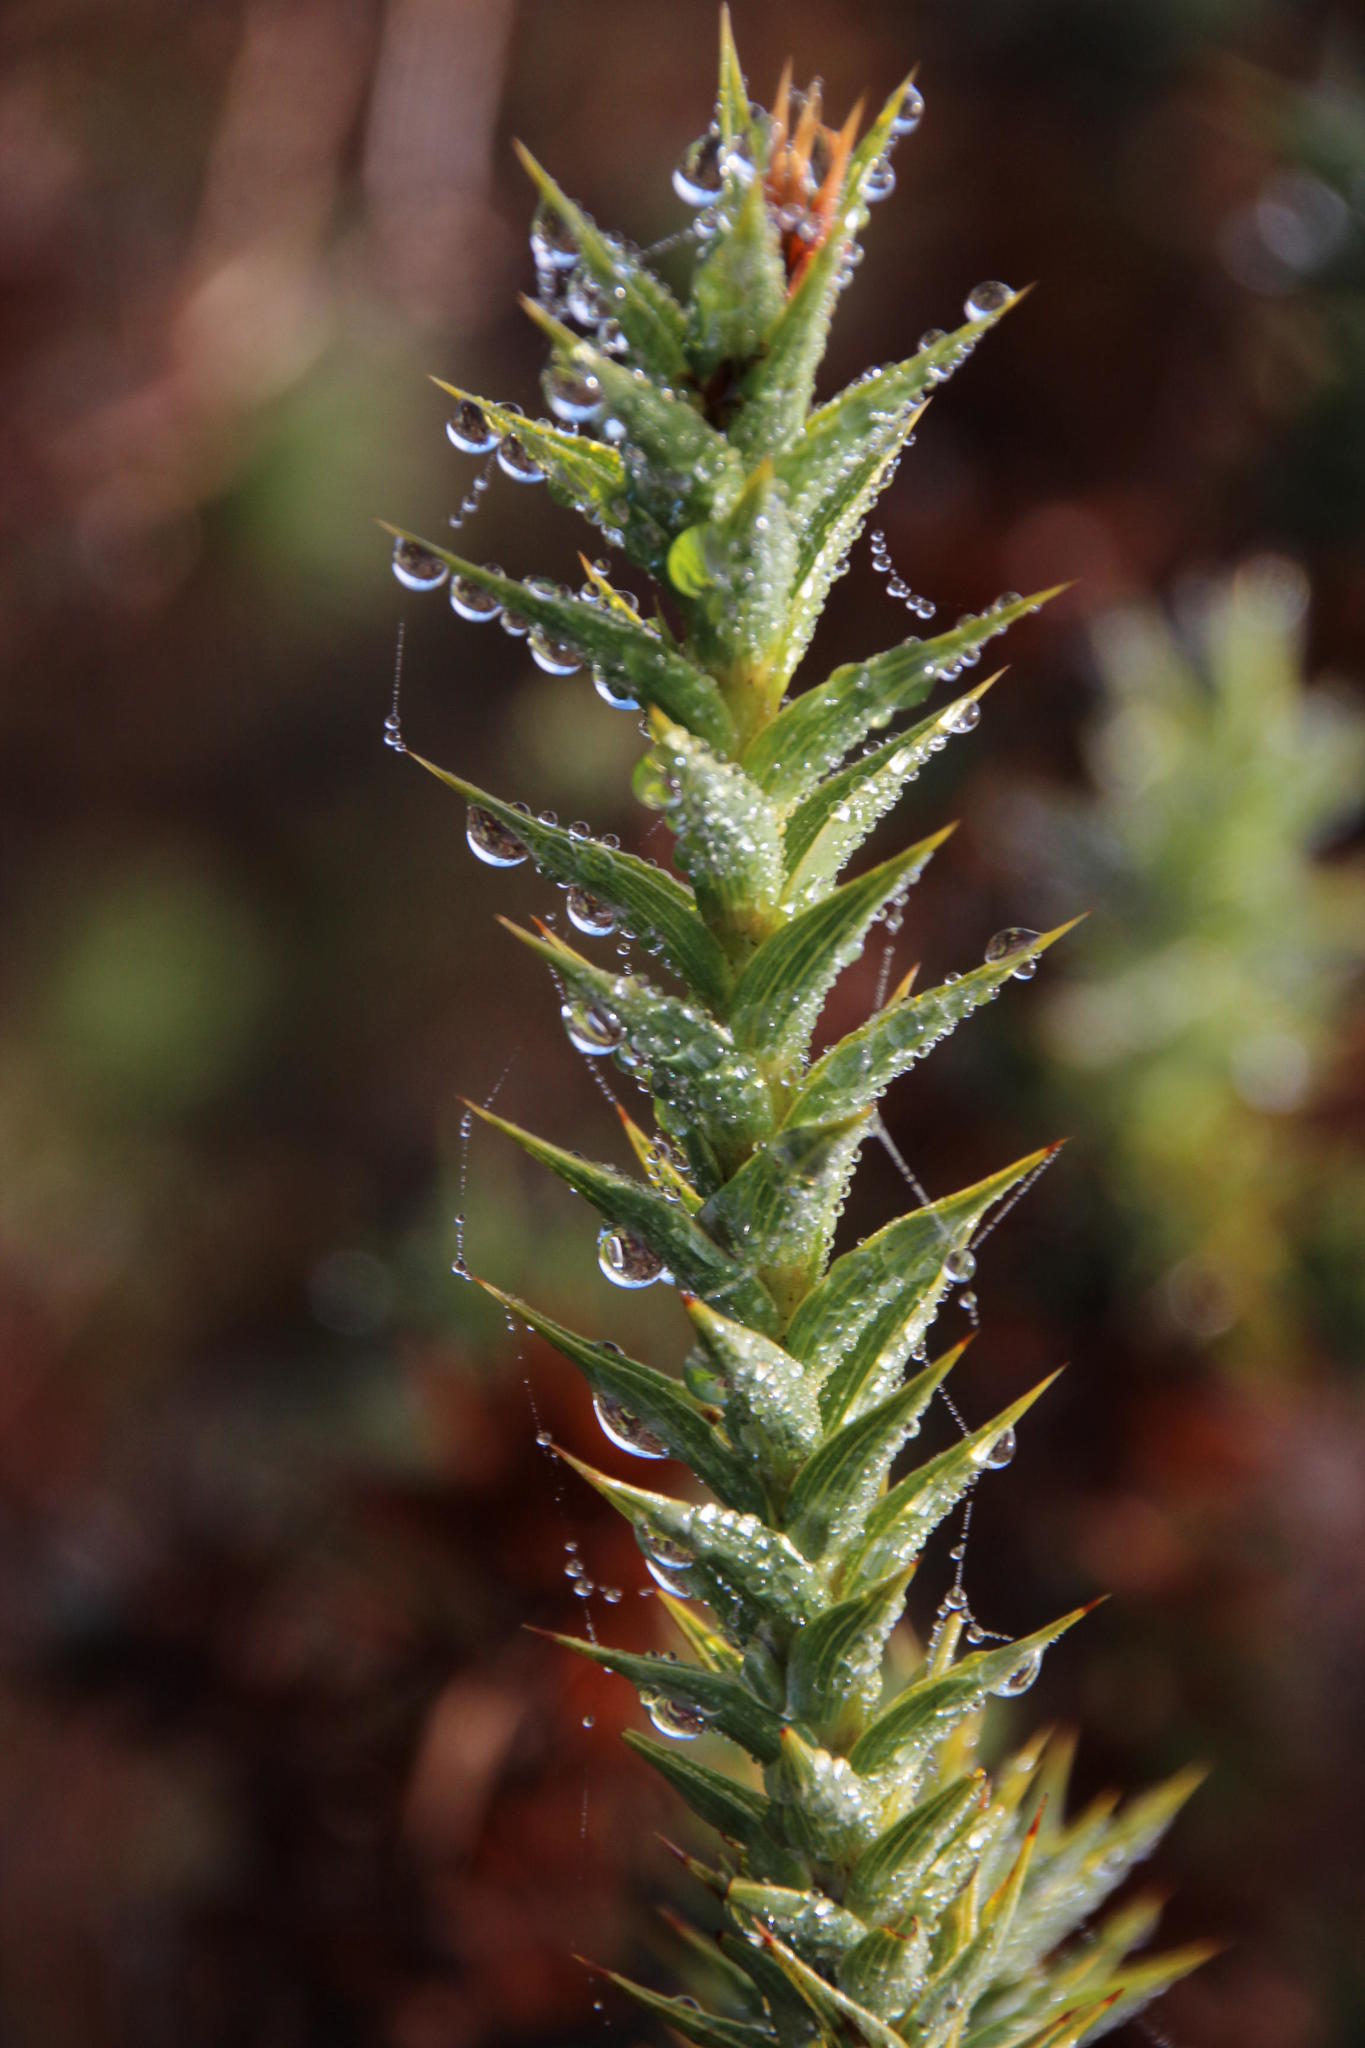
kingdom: Plantae
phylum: Tracheophyta
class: Magnoliopsida
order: Fabales
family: Fabaceae
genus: Aspalathus
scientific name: Aspalathus cordata
